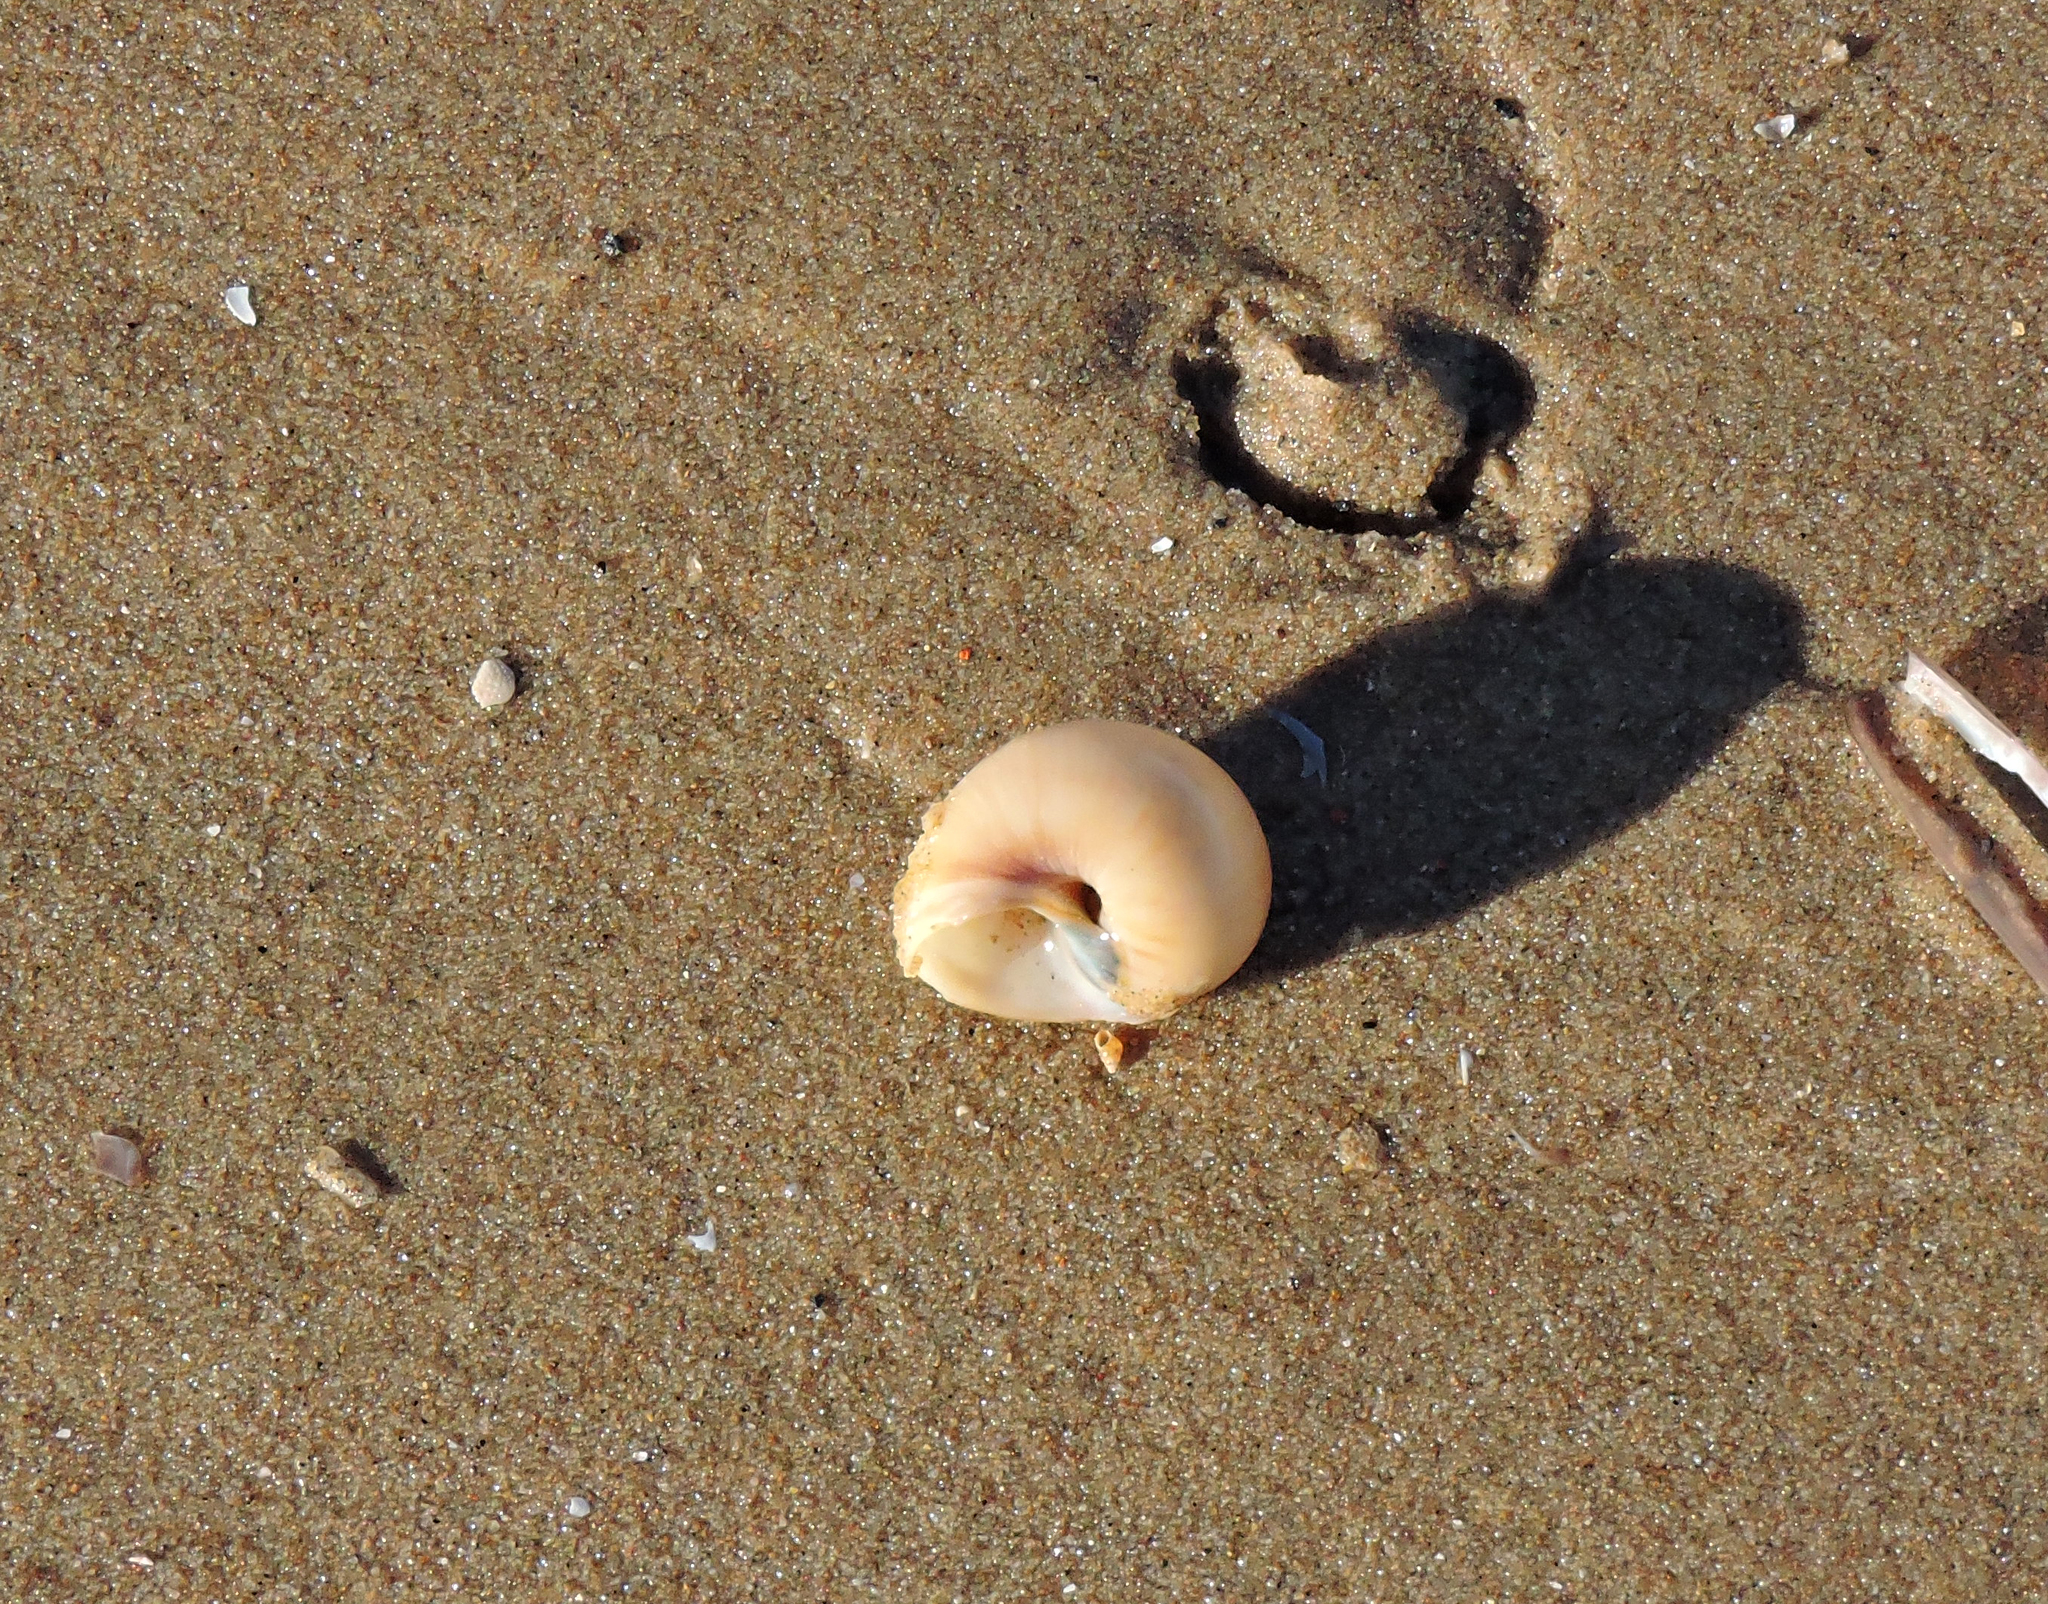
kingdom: Animalia
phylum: Mollusca
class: Gastropoda
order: Littorinimorpha
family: Naticidae
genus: Euspira
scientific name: Euspira catena
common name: Necklace shell
